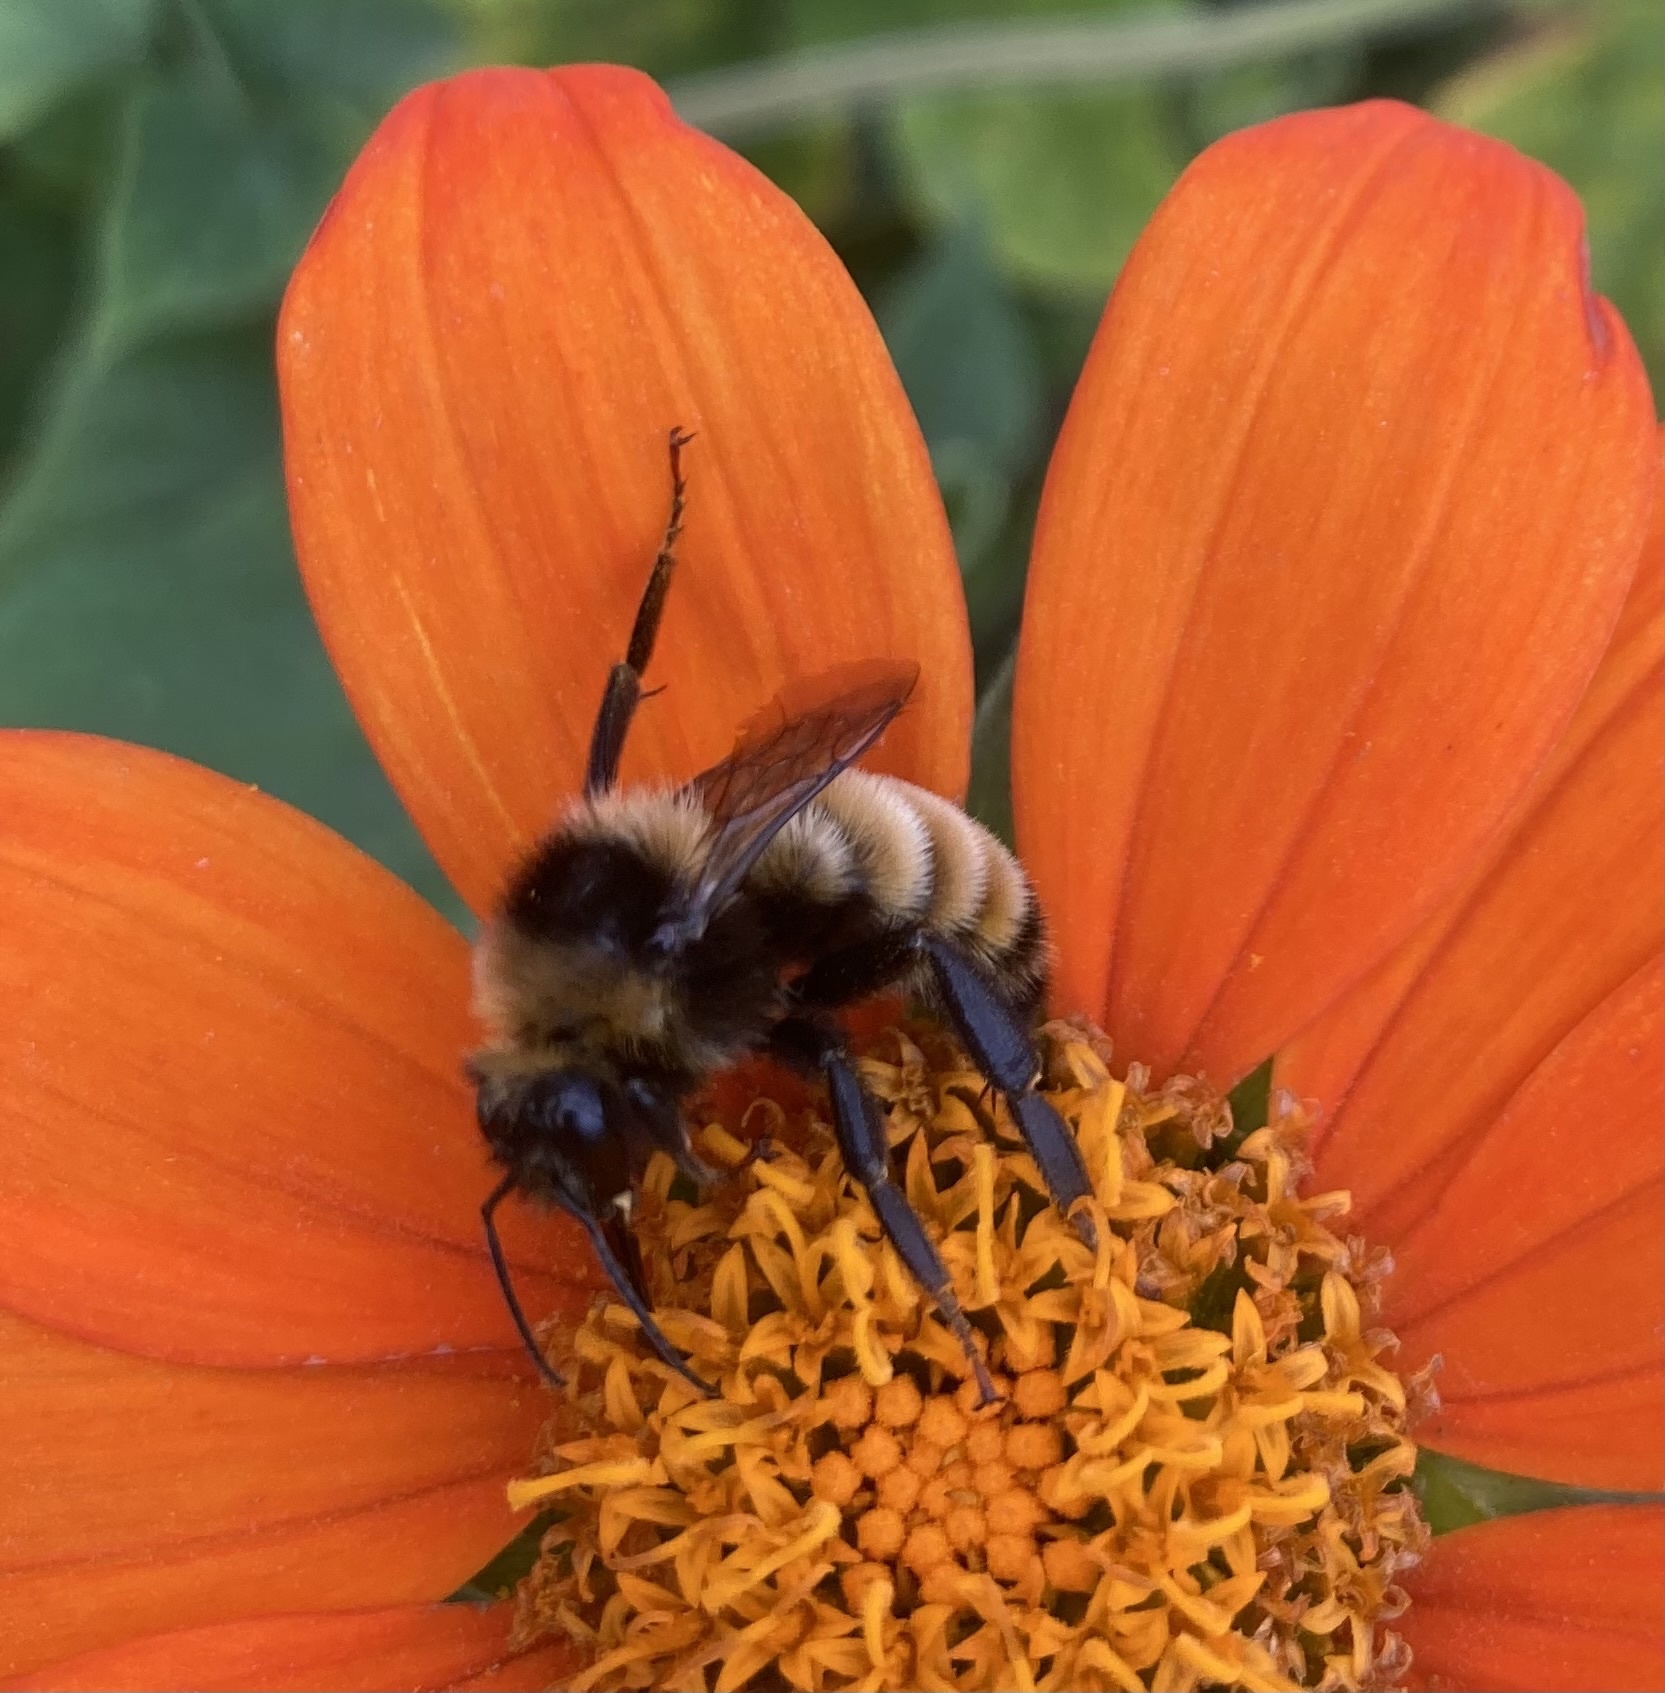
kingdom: Animalia
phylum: Arthropoda
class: Insecta
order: Hymenoptera
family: Apidae
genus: Bombus
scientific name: Bombus borealis
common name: Northern amber bumble bee
